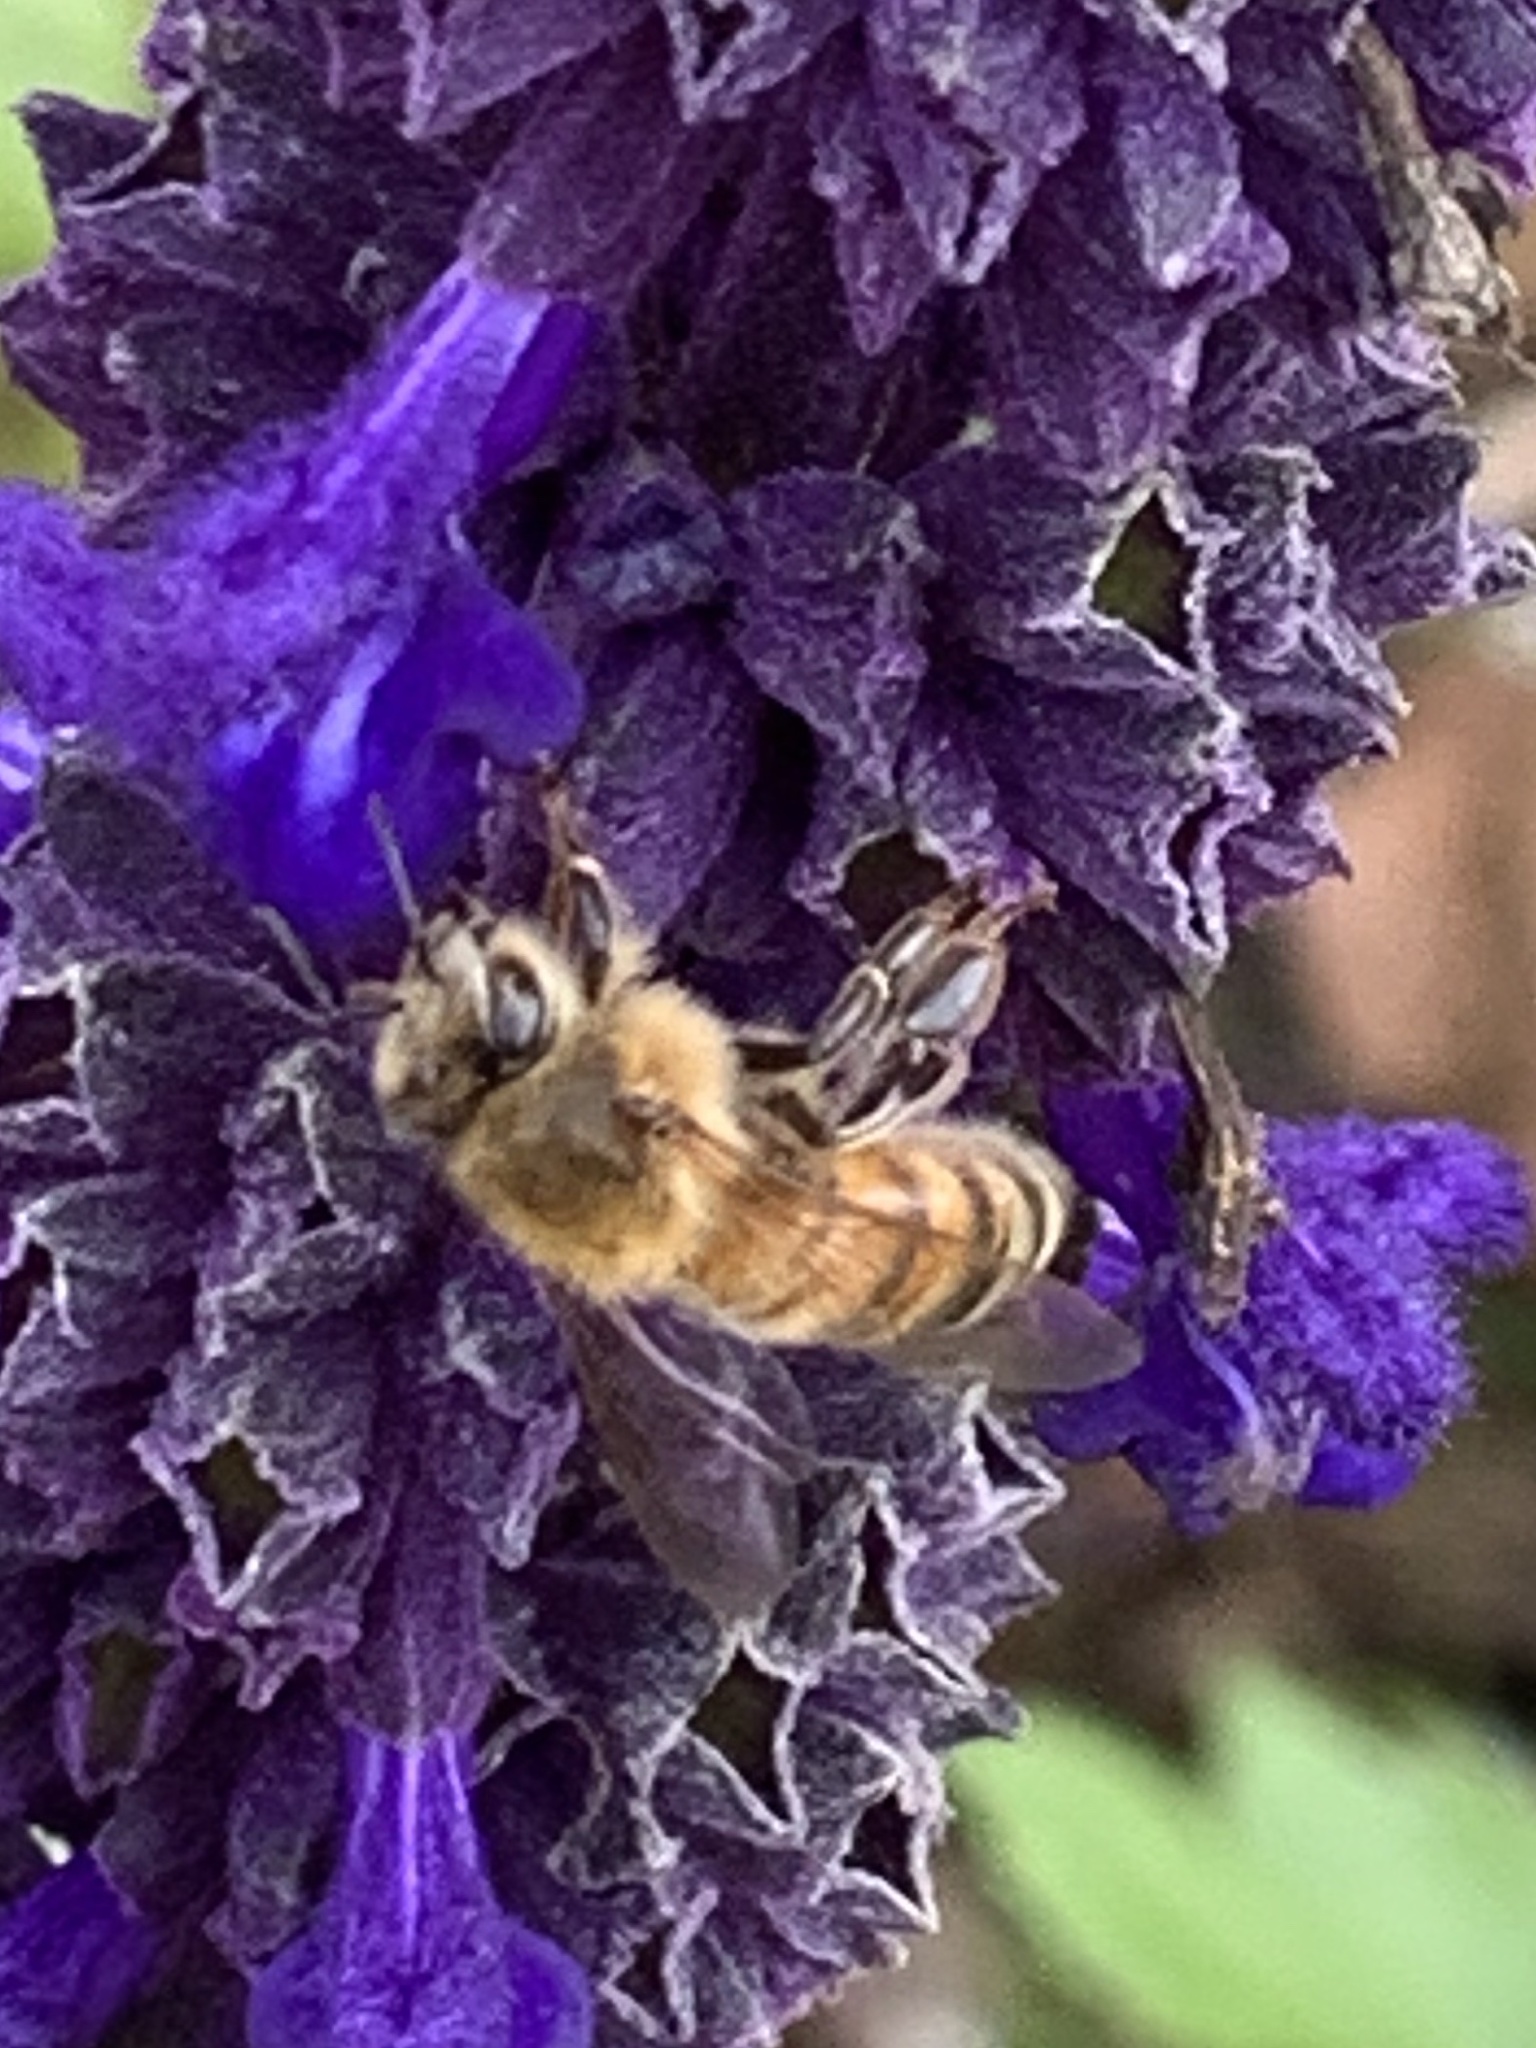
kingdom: Animalia
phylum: Arthropoda
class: Insecta
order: Hymenoptera
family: Apidae
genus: Apis
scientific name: Apis mellifera
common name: Honey bee
